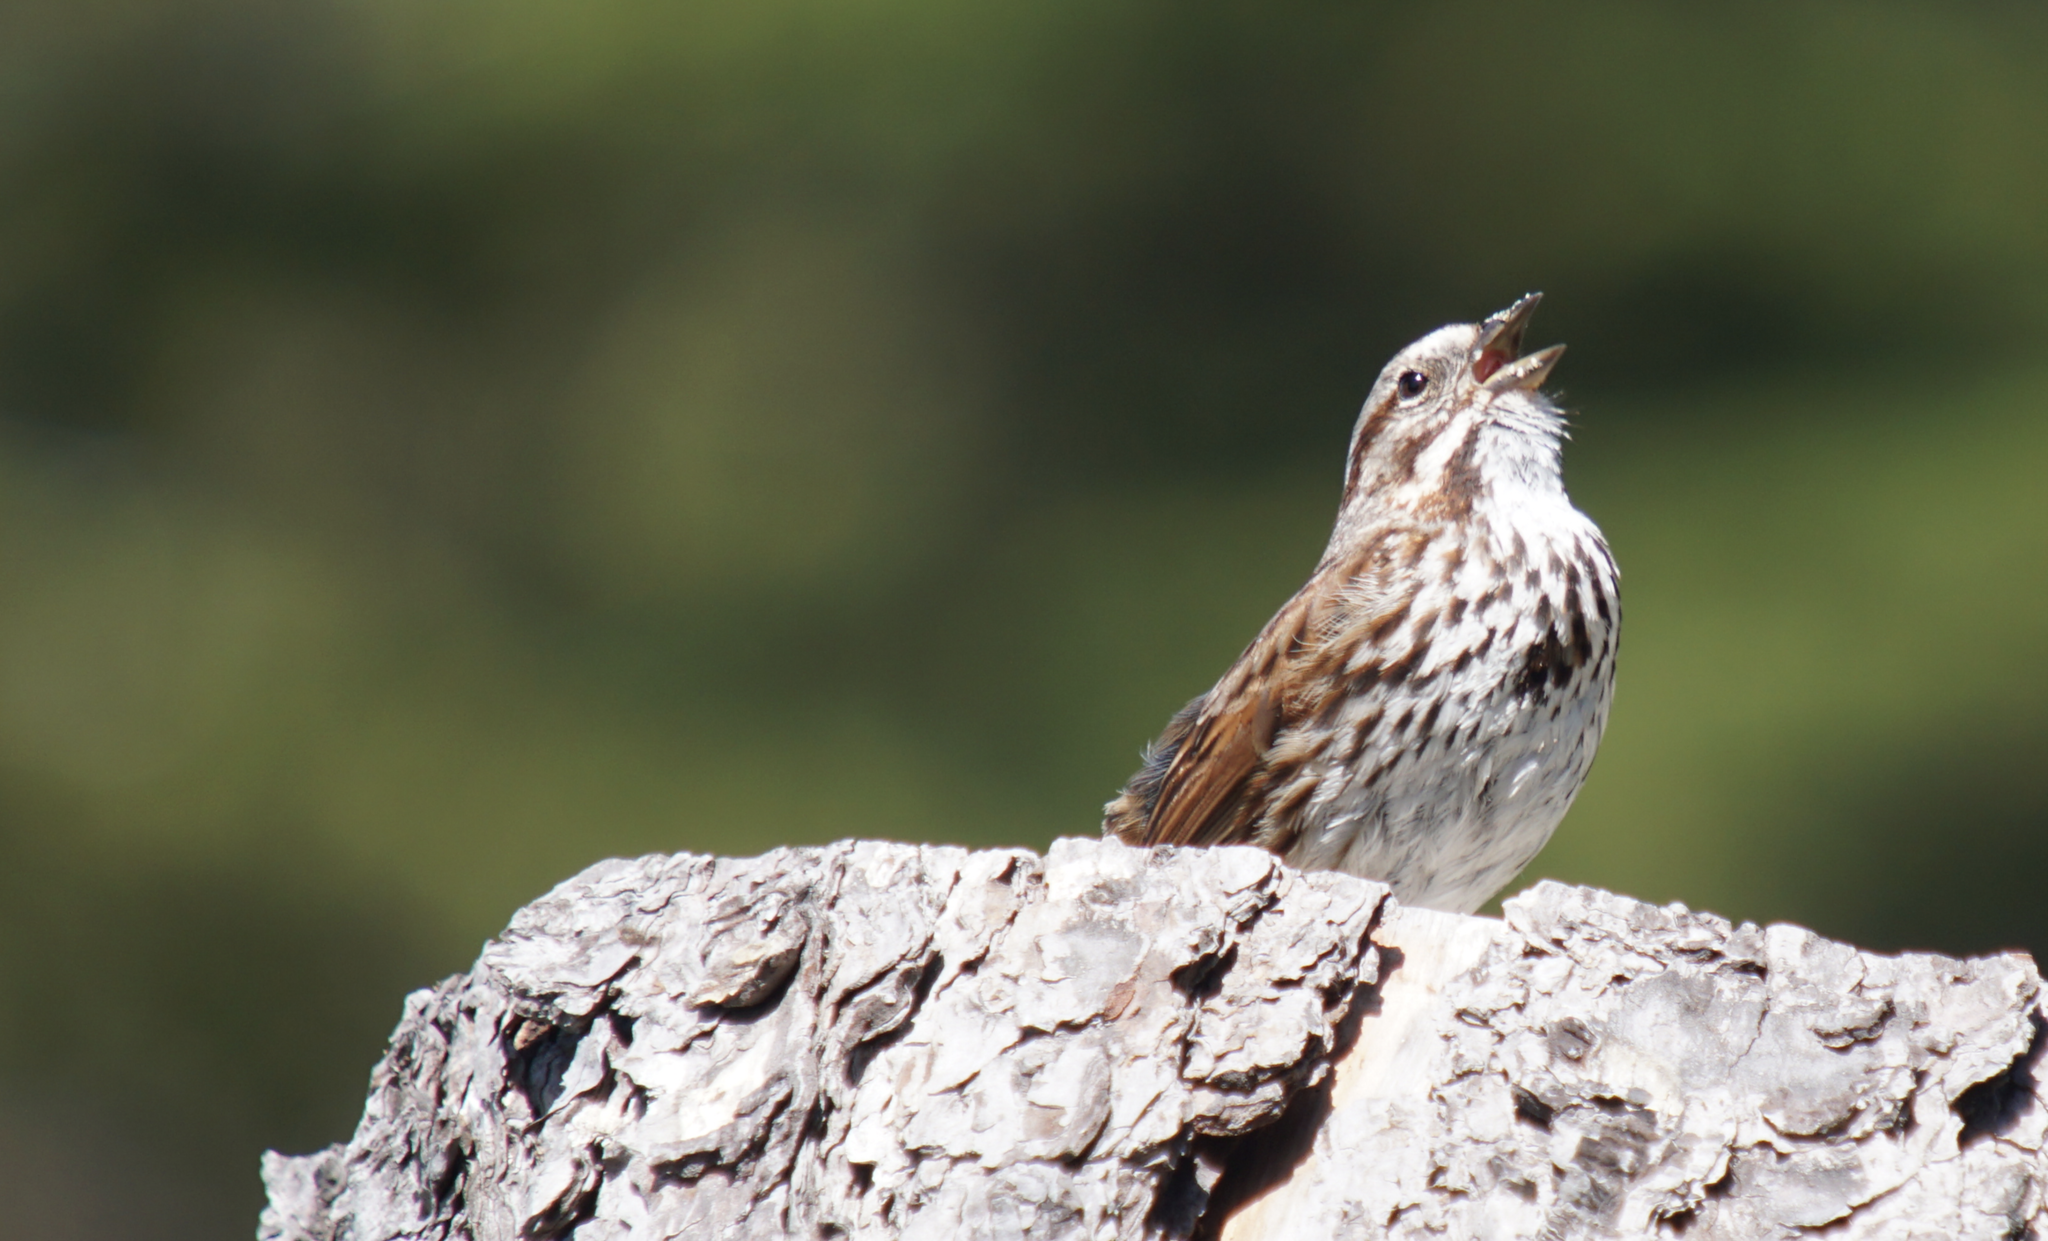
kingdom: Animalia
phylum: Chordata
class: Aves
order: Passeriformes
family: Passerellidae
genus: Melospiza
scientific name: Melospiza melodia
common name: Song sparrow
